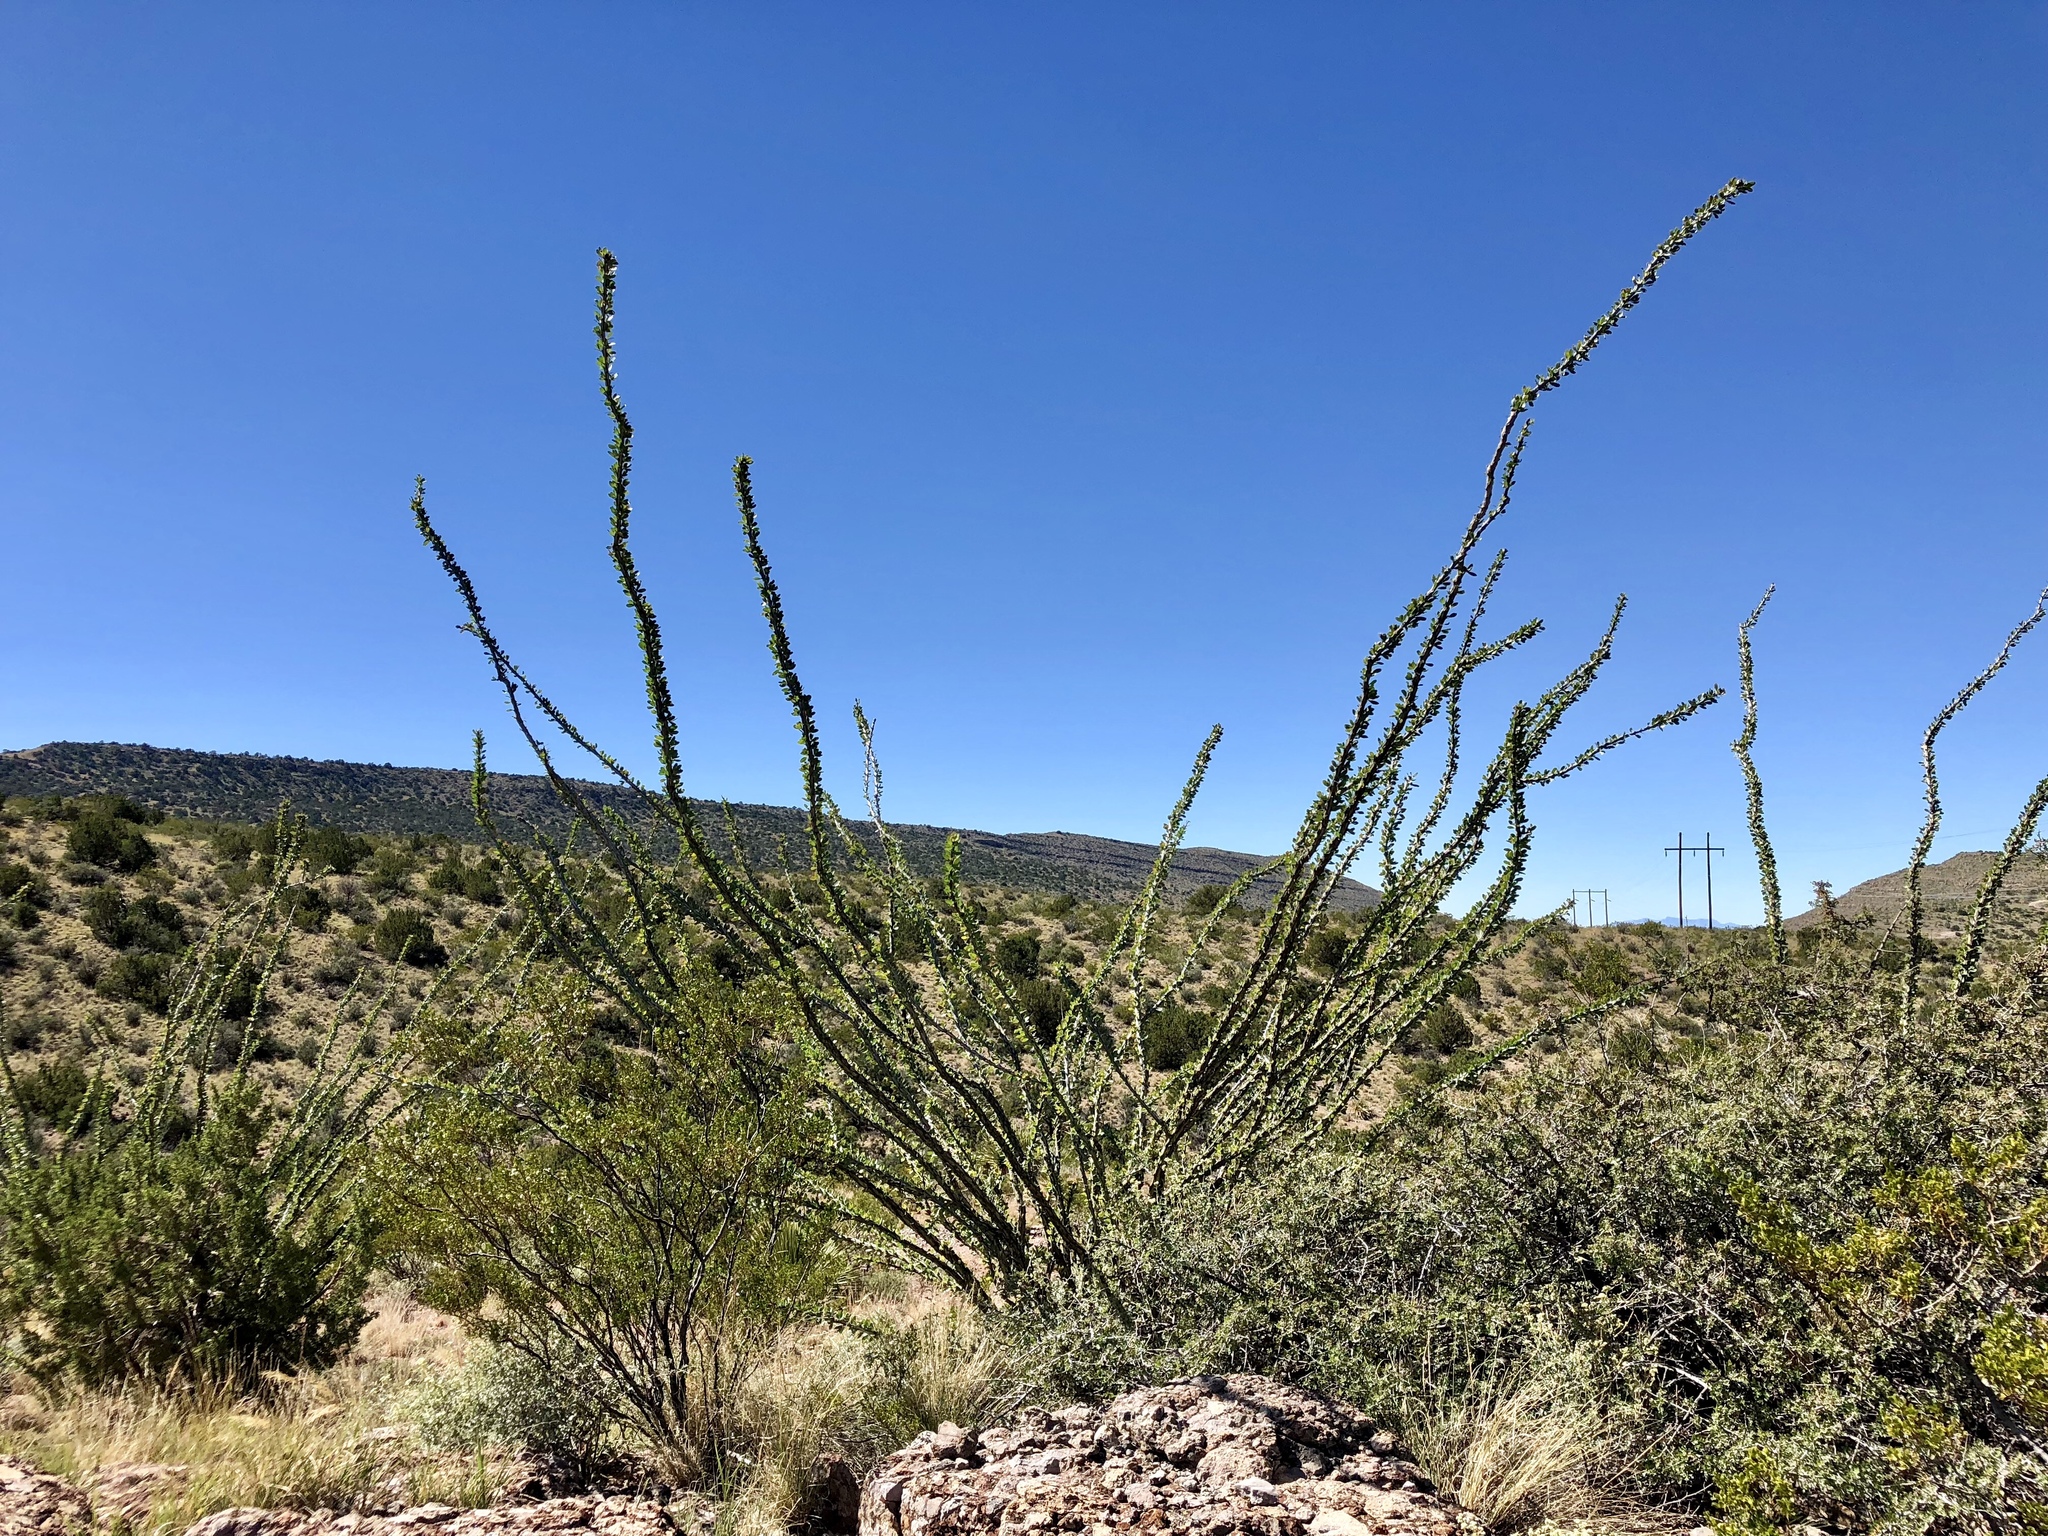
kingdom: Plantae
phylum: Tracheophyta
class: Magnoliopsida
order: Ericales
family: Fouquieriaceae
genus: Fouquieria
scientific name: Fouquieria splendens
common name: Vine-cactus
